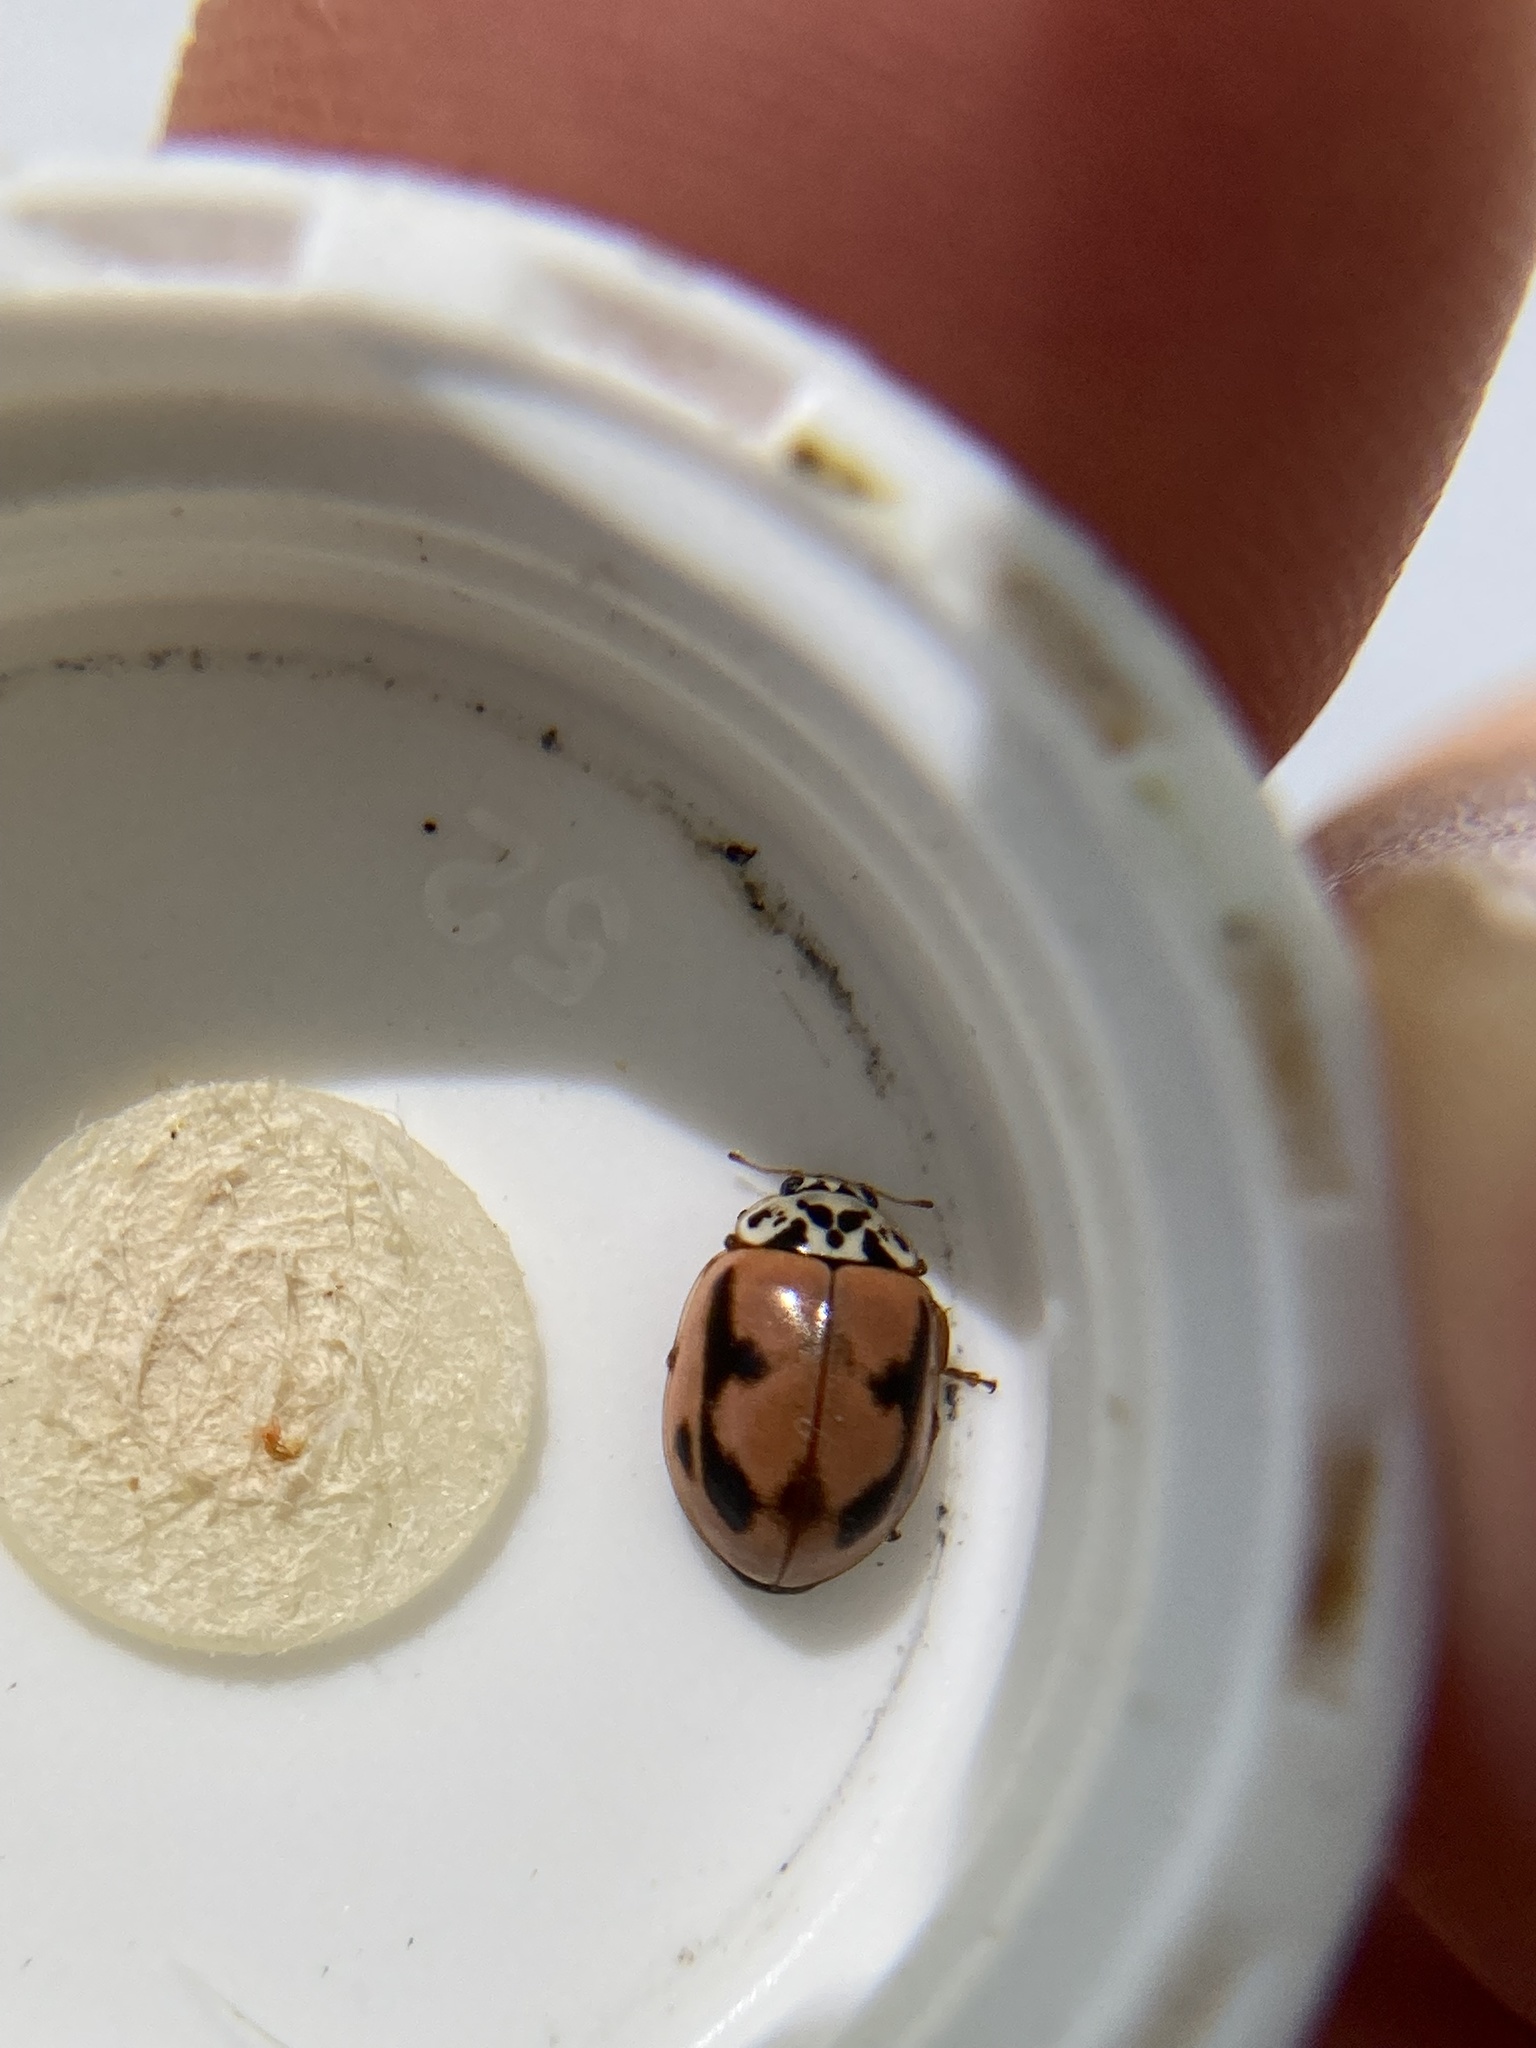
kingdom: Animalia
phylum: Arthropoda
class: Insecta
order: Coleoptera
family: Coccinellidae
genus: Mulsantina
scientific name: Mulsantina picta
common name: Painted ladybird
